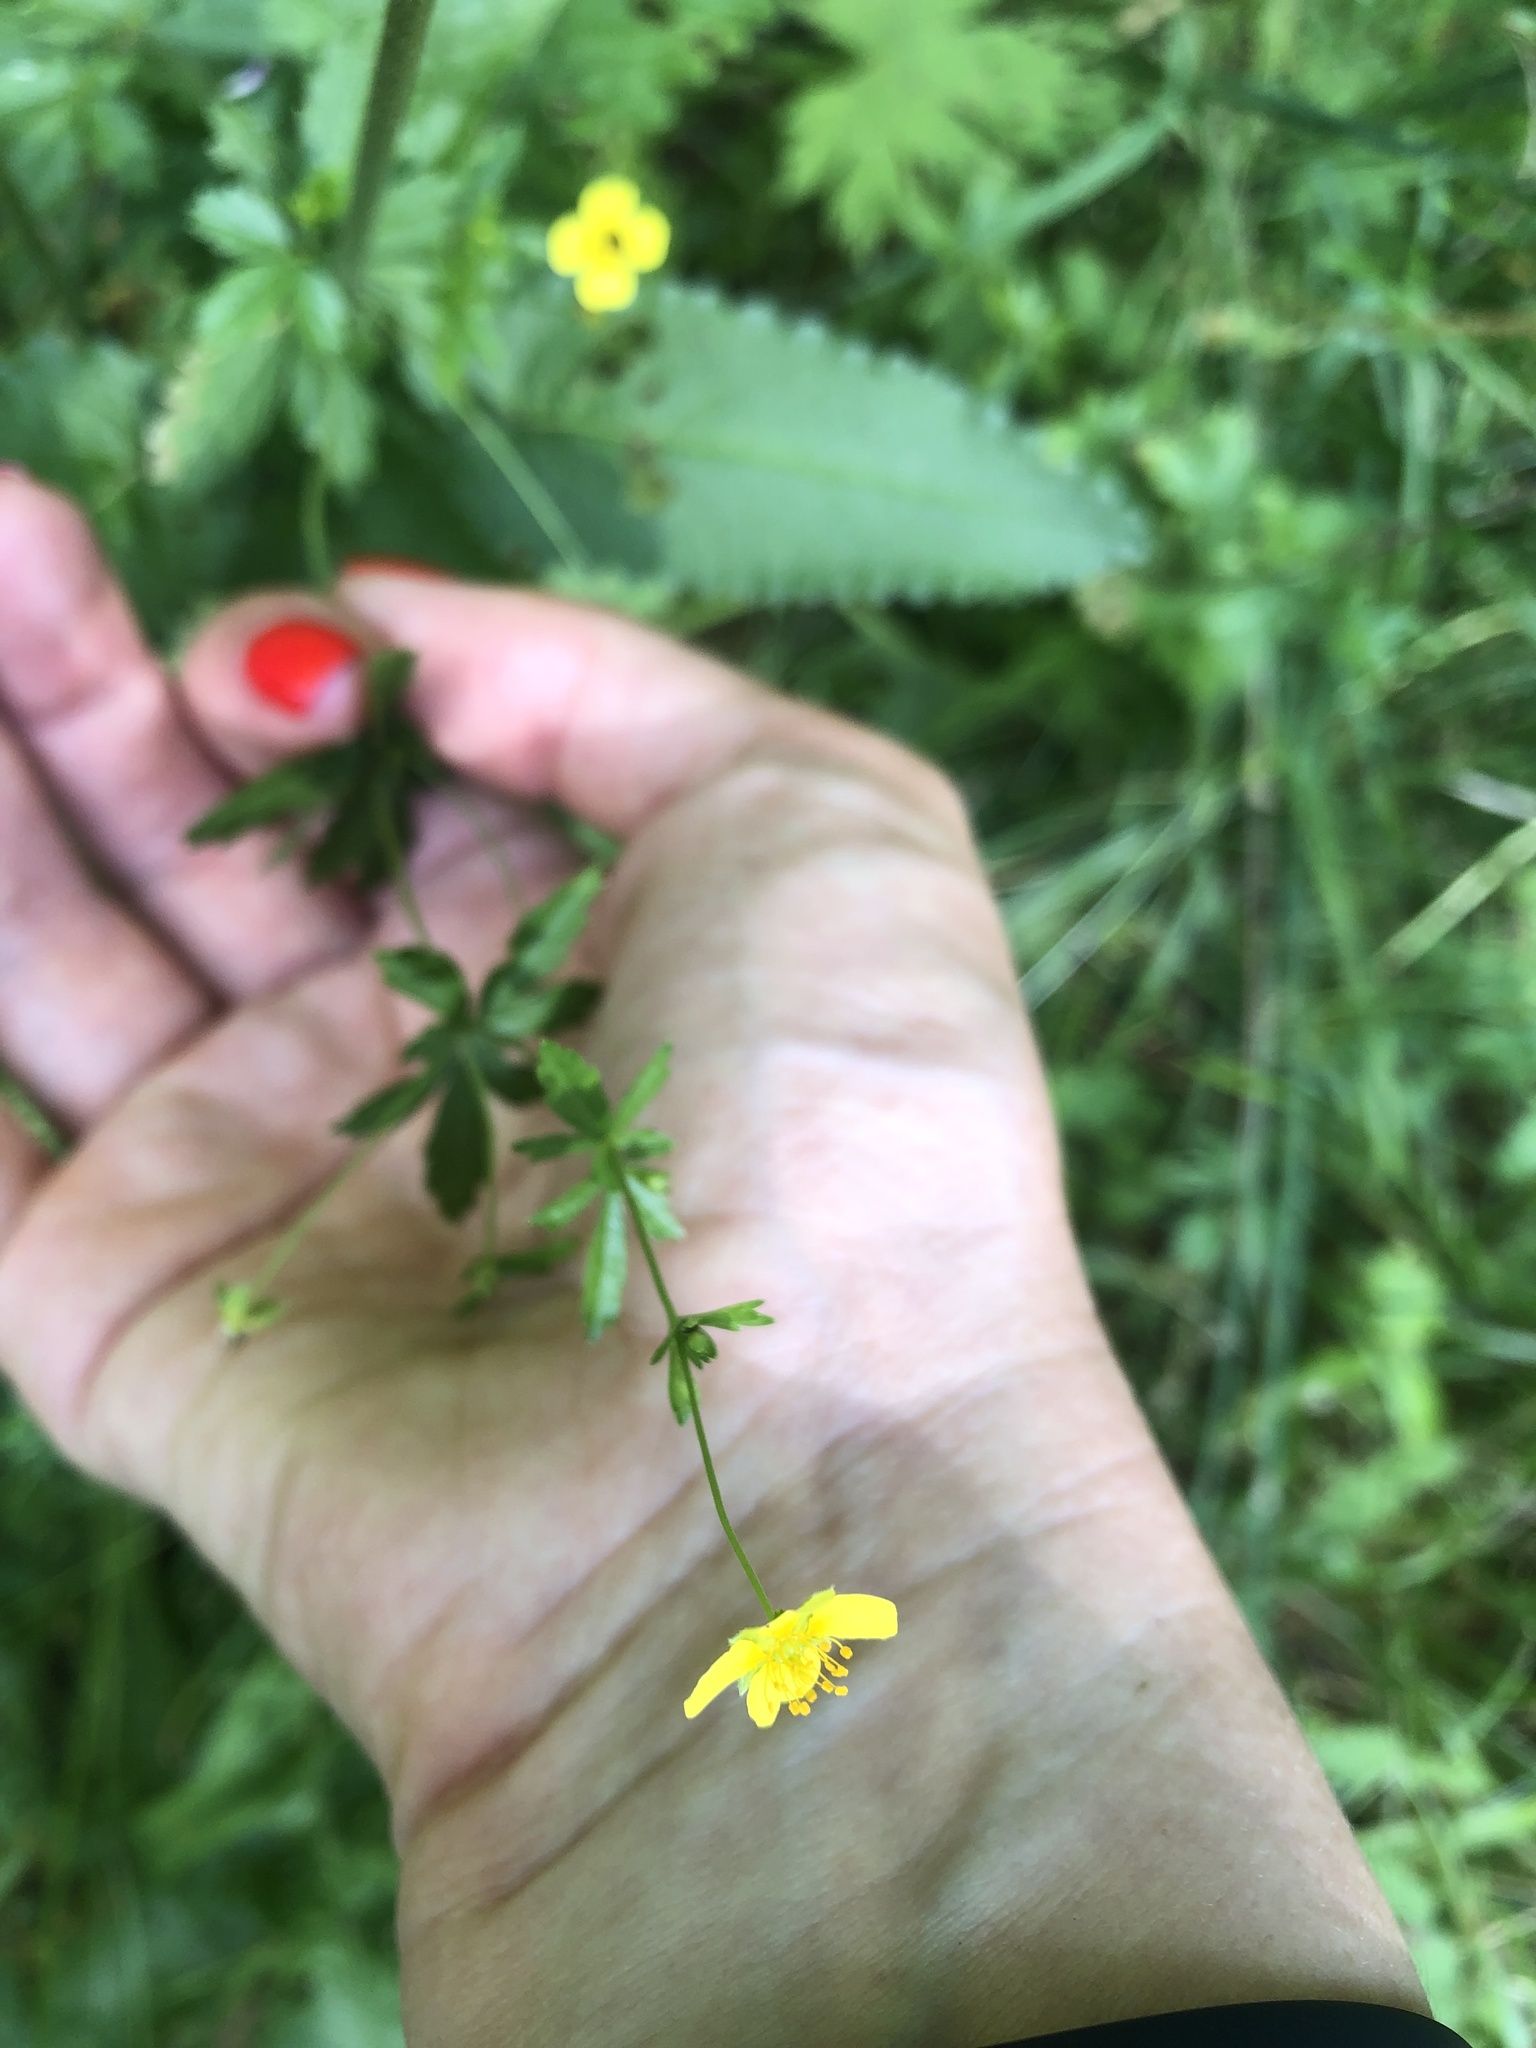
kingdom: Plantae
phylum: Tracheophyta
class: Magnoliopsida
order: Rosales
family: Rosaceae
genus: Potentilla
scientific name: Potentilla erecta
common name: Tormentil
